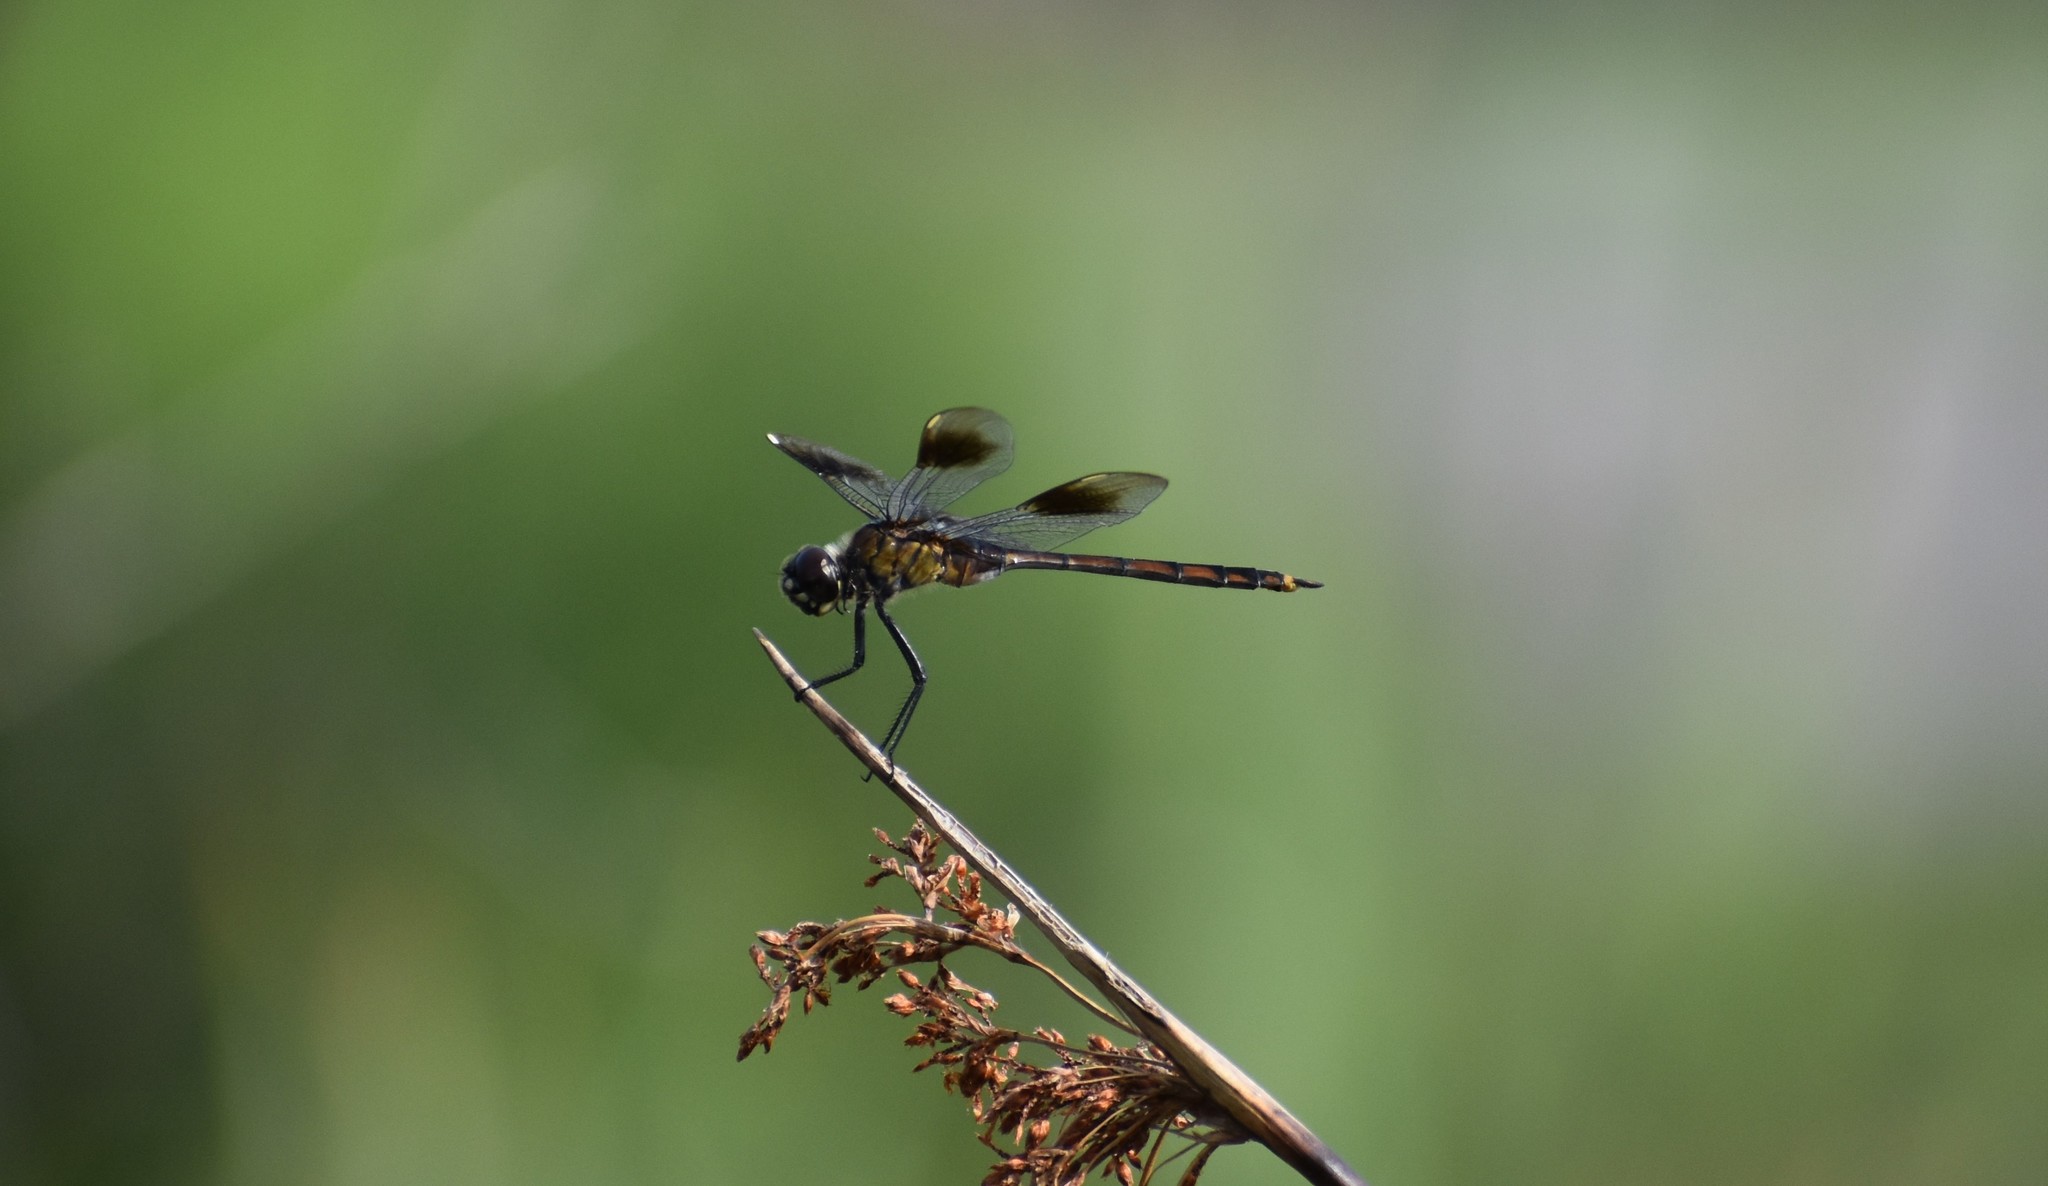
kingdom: Animalia
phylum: Arthropoda
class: Insecta
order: Odonata
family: Libellulidae
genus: Brachymesia
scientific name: Brachymesia gravida
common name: Four-spotted pennant
